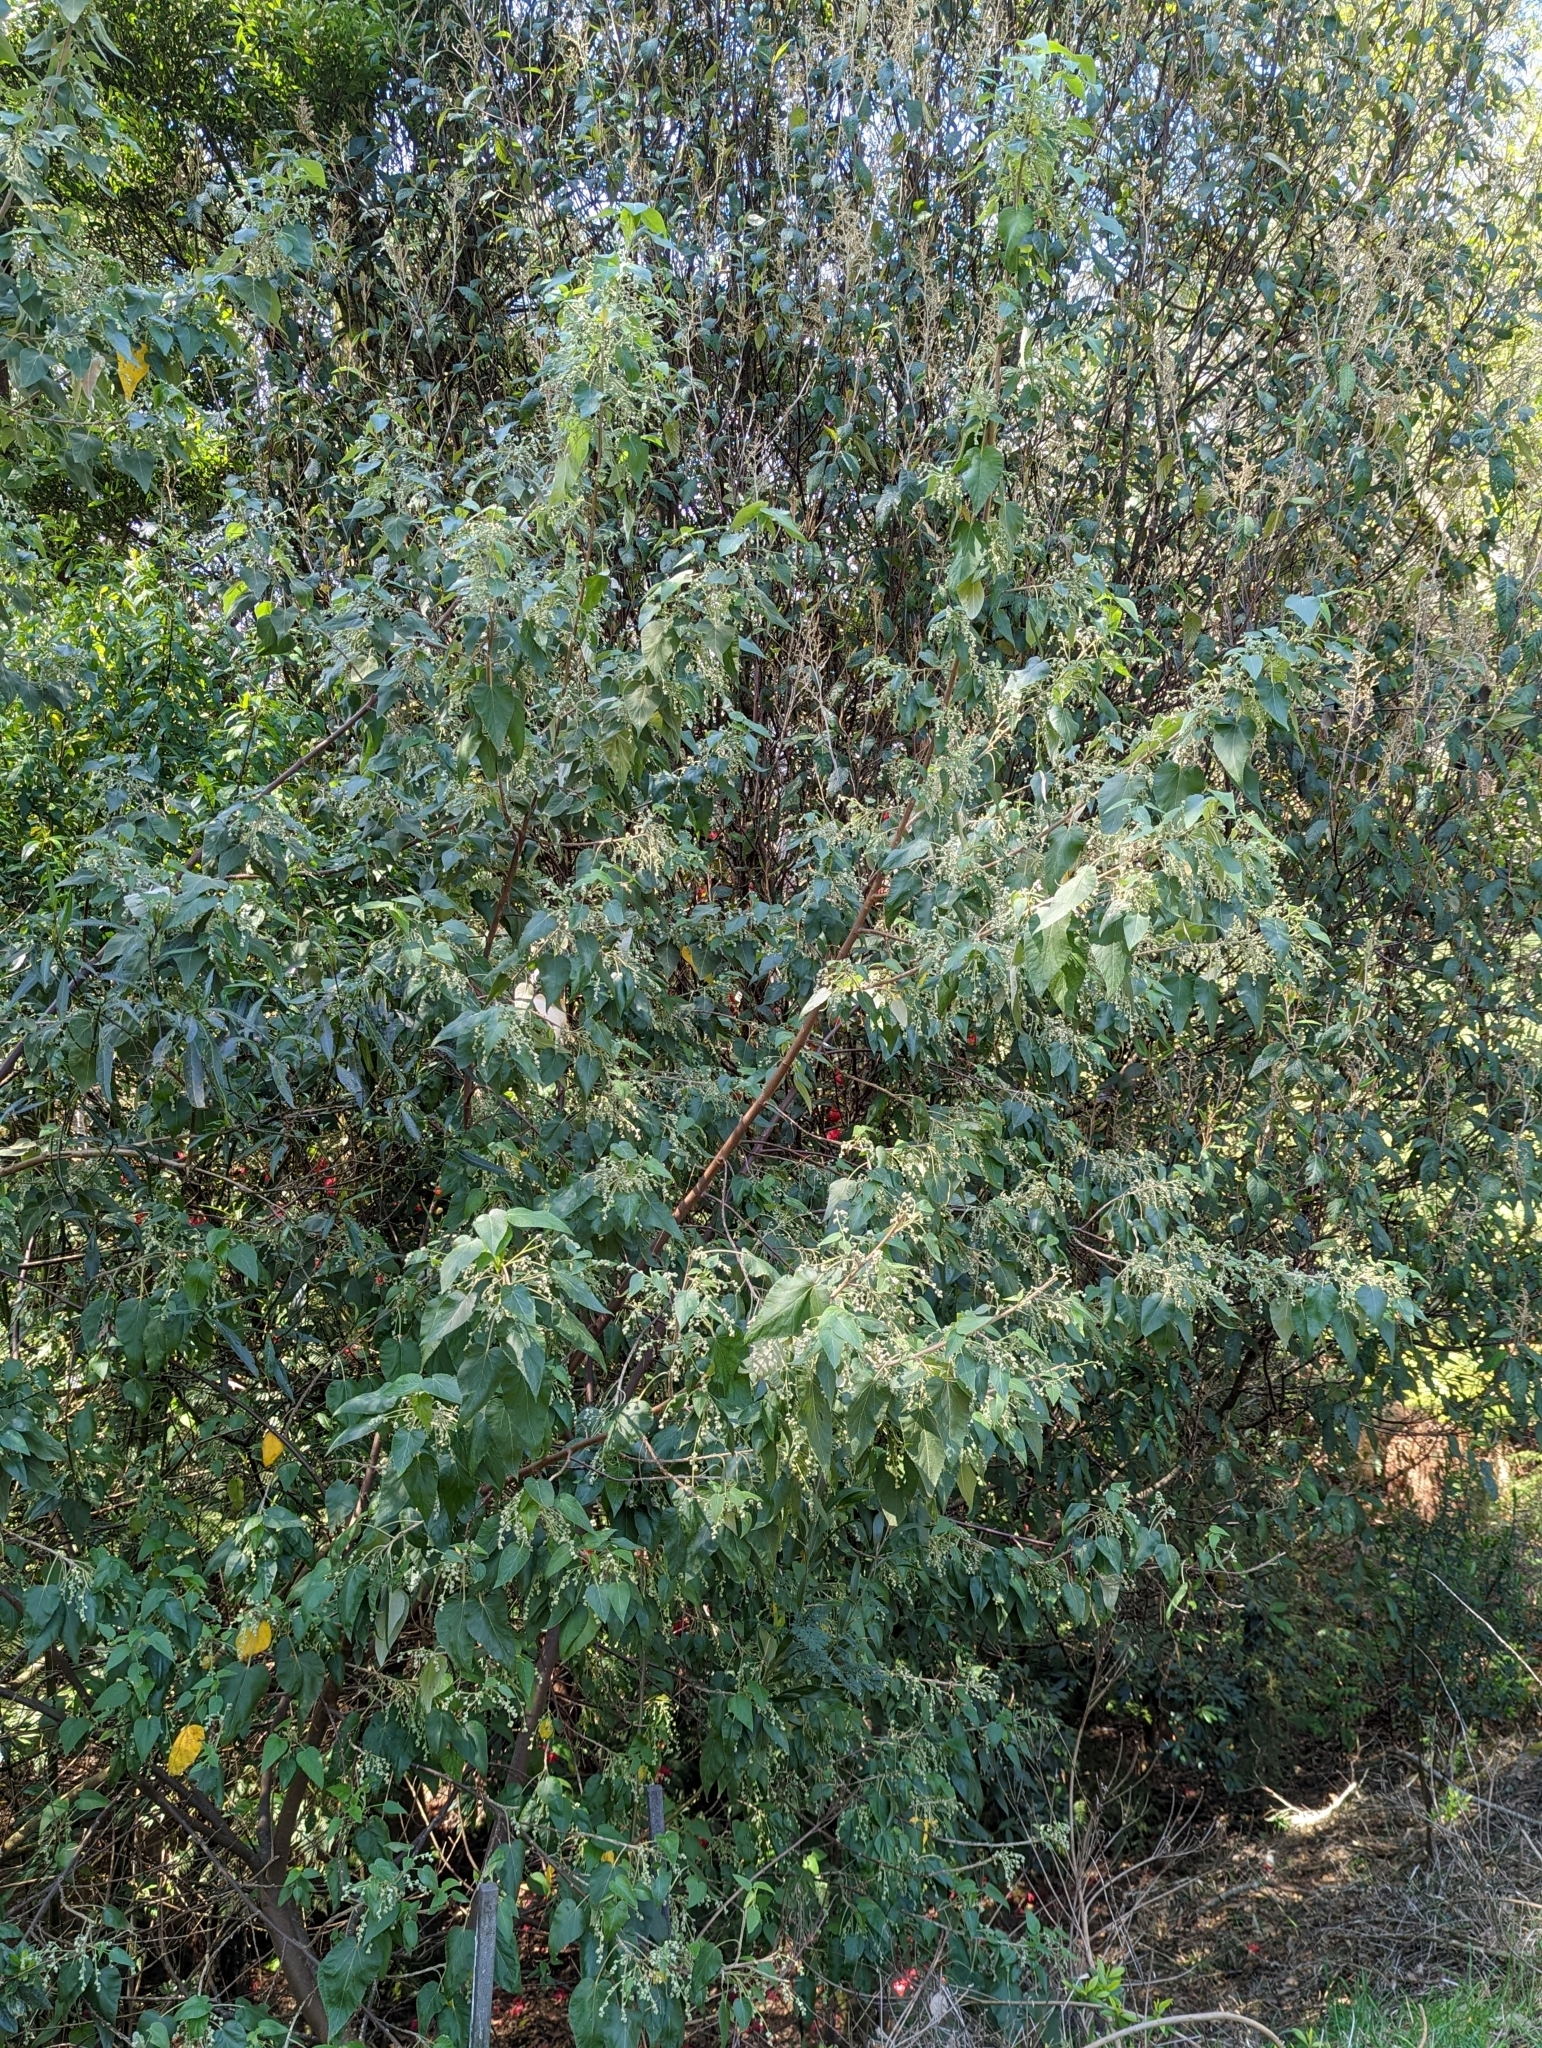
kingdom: Plantae
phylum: Tracheophyta
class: Magnoliopsida
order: Malvales
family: Malvaceae
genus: Gynatrix
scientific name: Gynatrix pulchella
